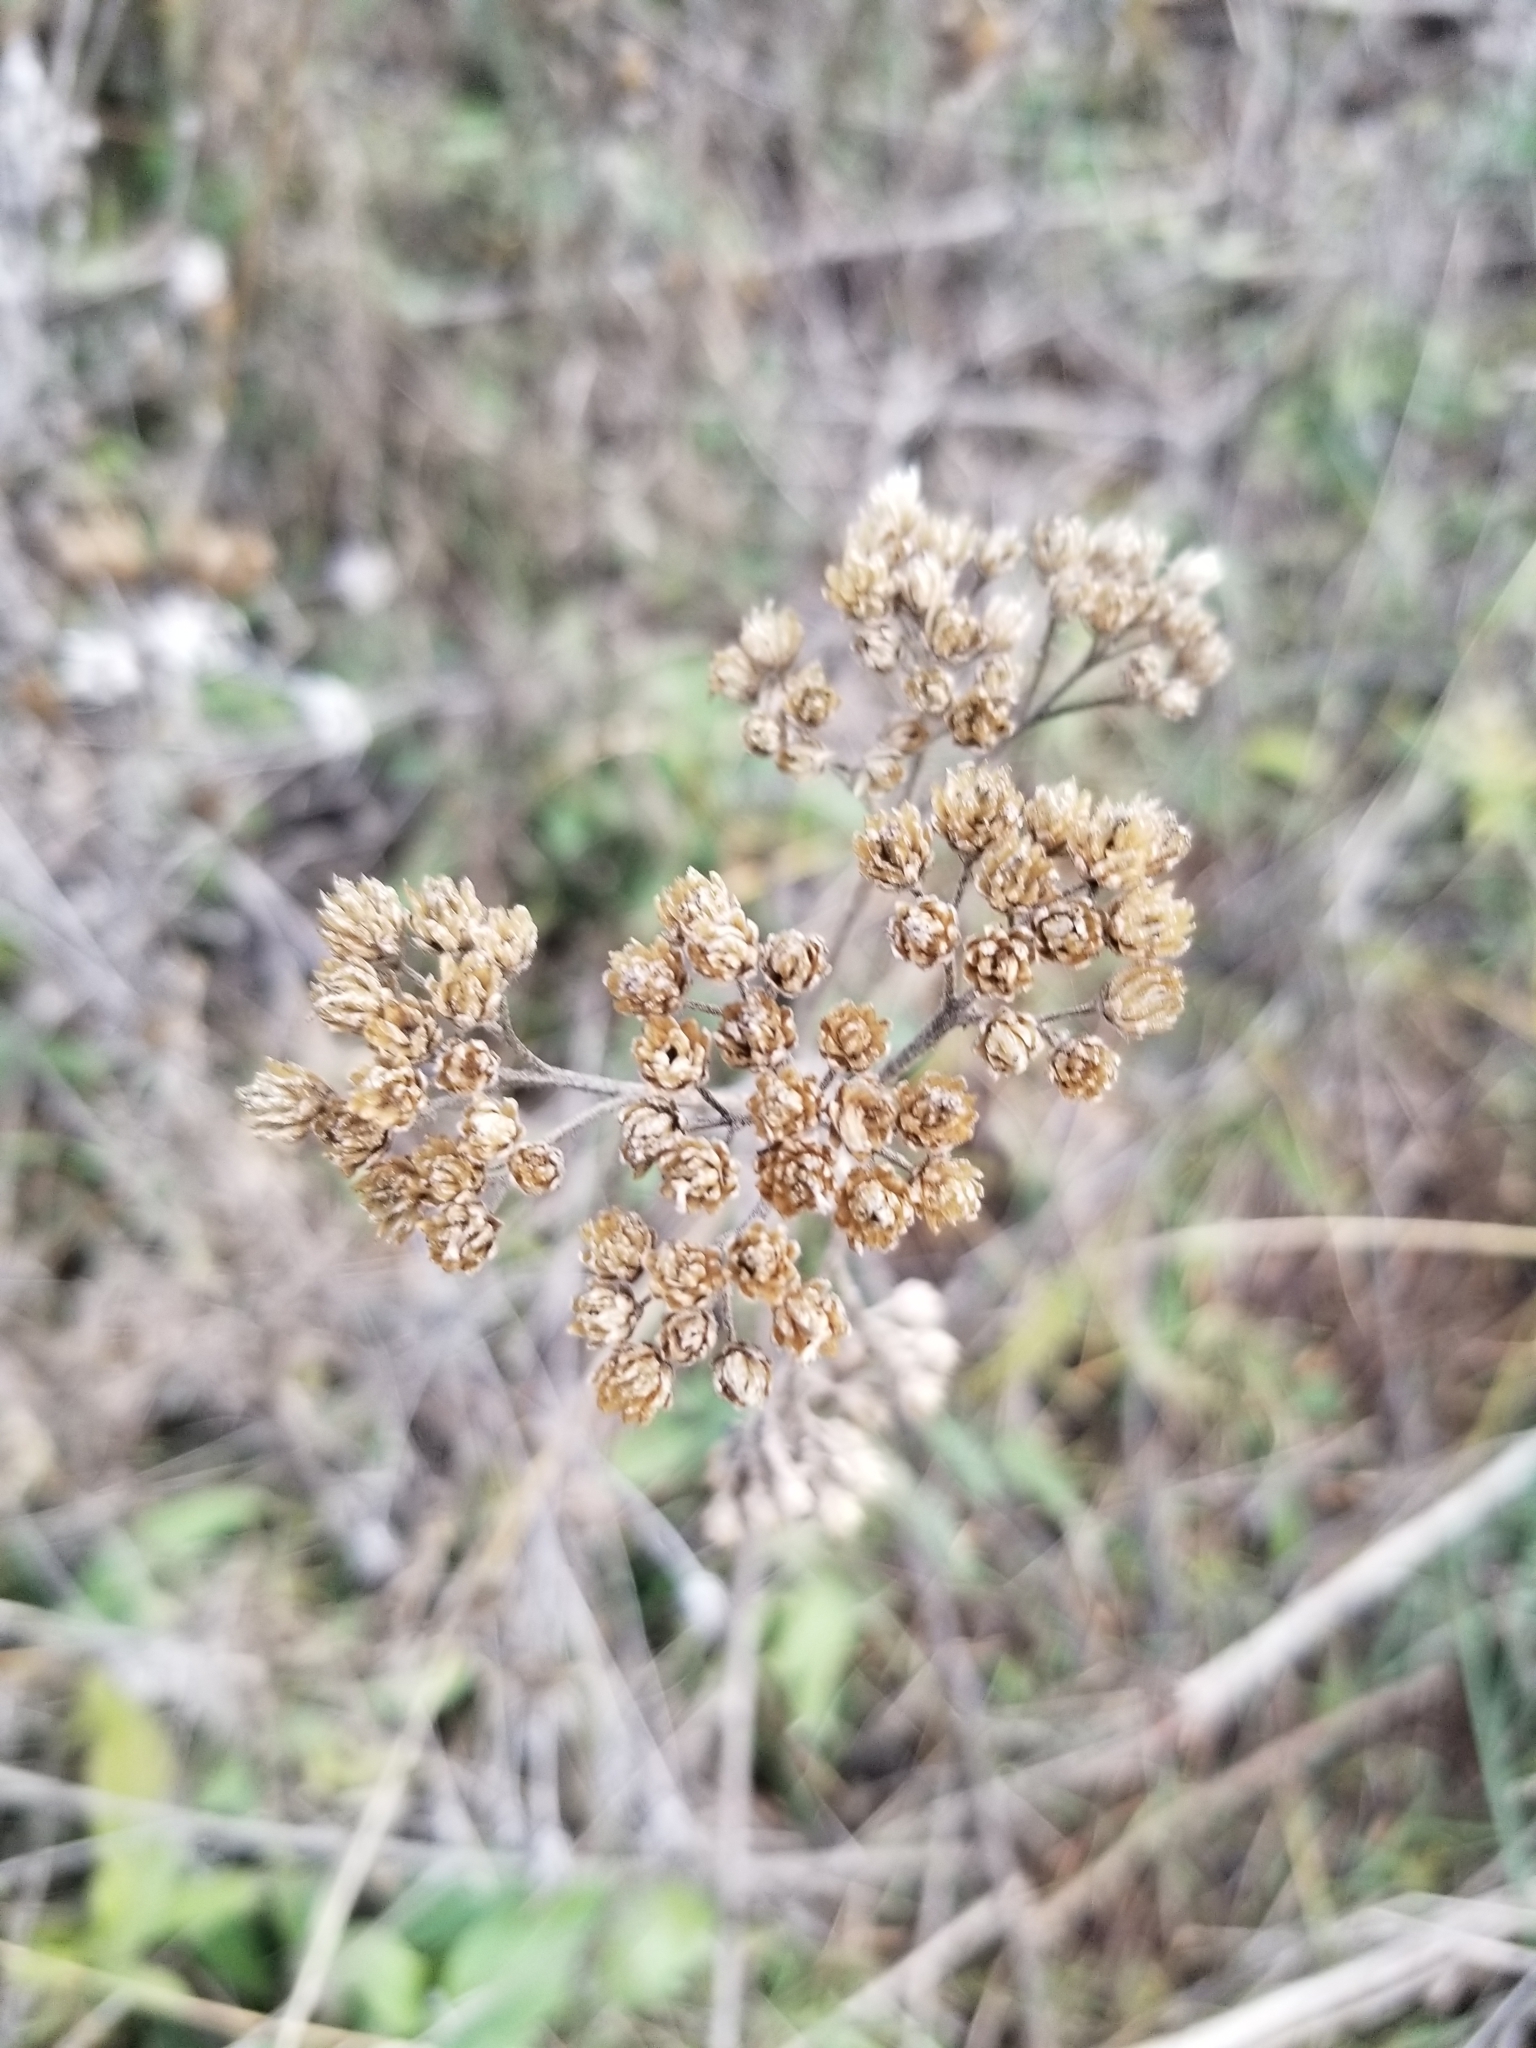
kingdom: Plantae
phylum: Tracheophyta
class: Magnoliopsida
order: Asterales
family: Asteraceae
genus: Achillea
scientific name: Achillea millefolium
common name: Yarrow
